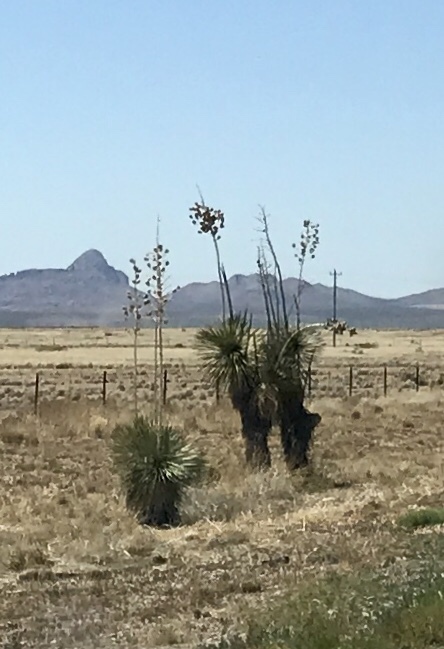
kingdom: Plantae
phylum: Tracheophyta
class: Liliopsida
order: Asparagales
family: Asparagaceae
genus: Yucca
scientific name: Yucca elata
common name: Palmella
